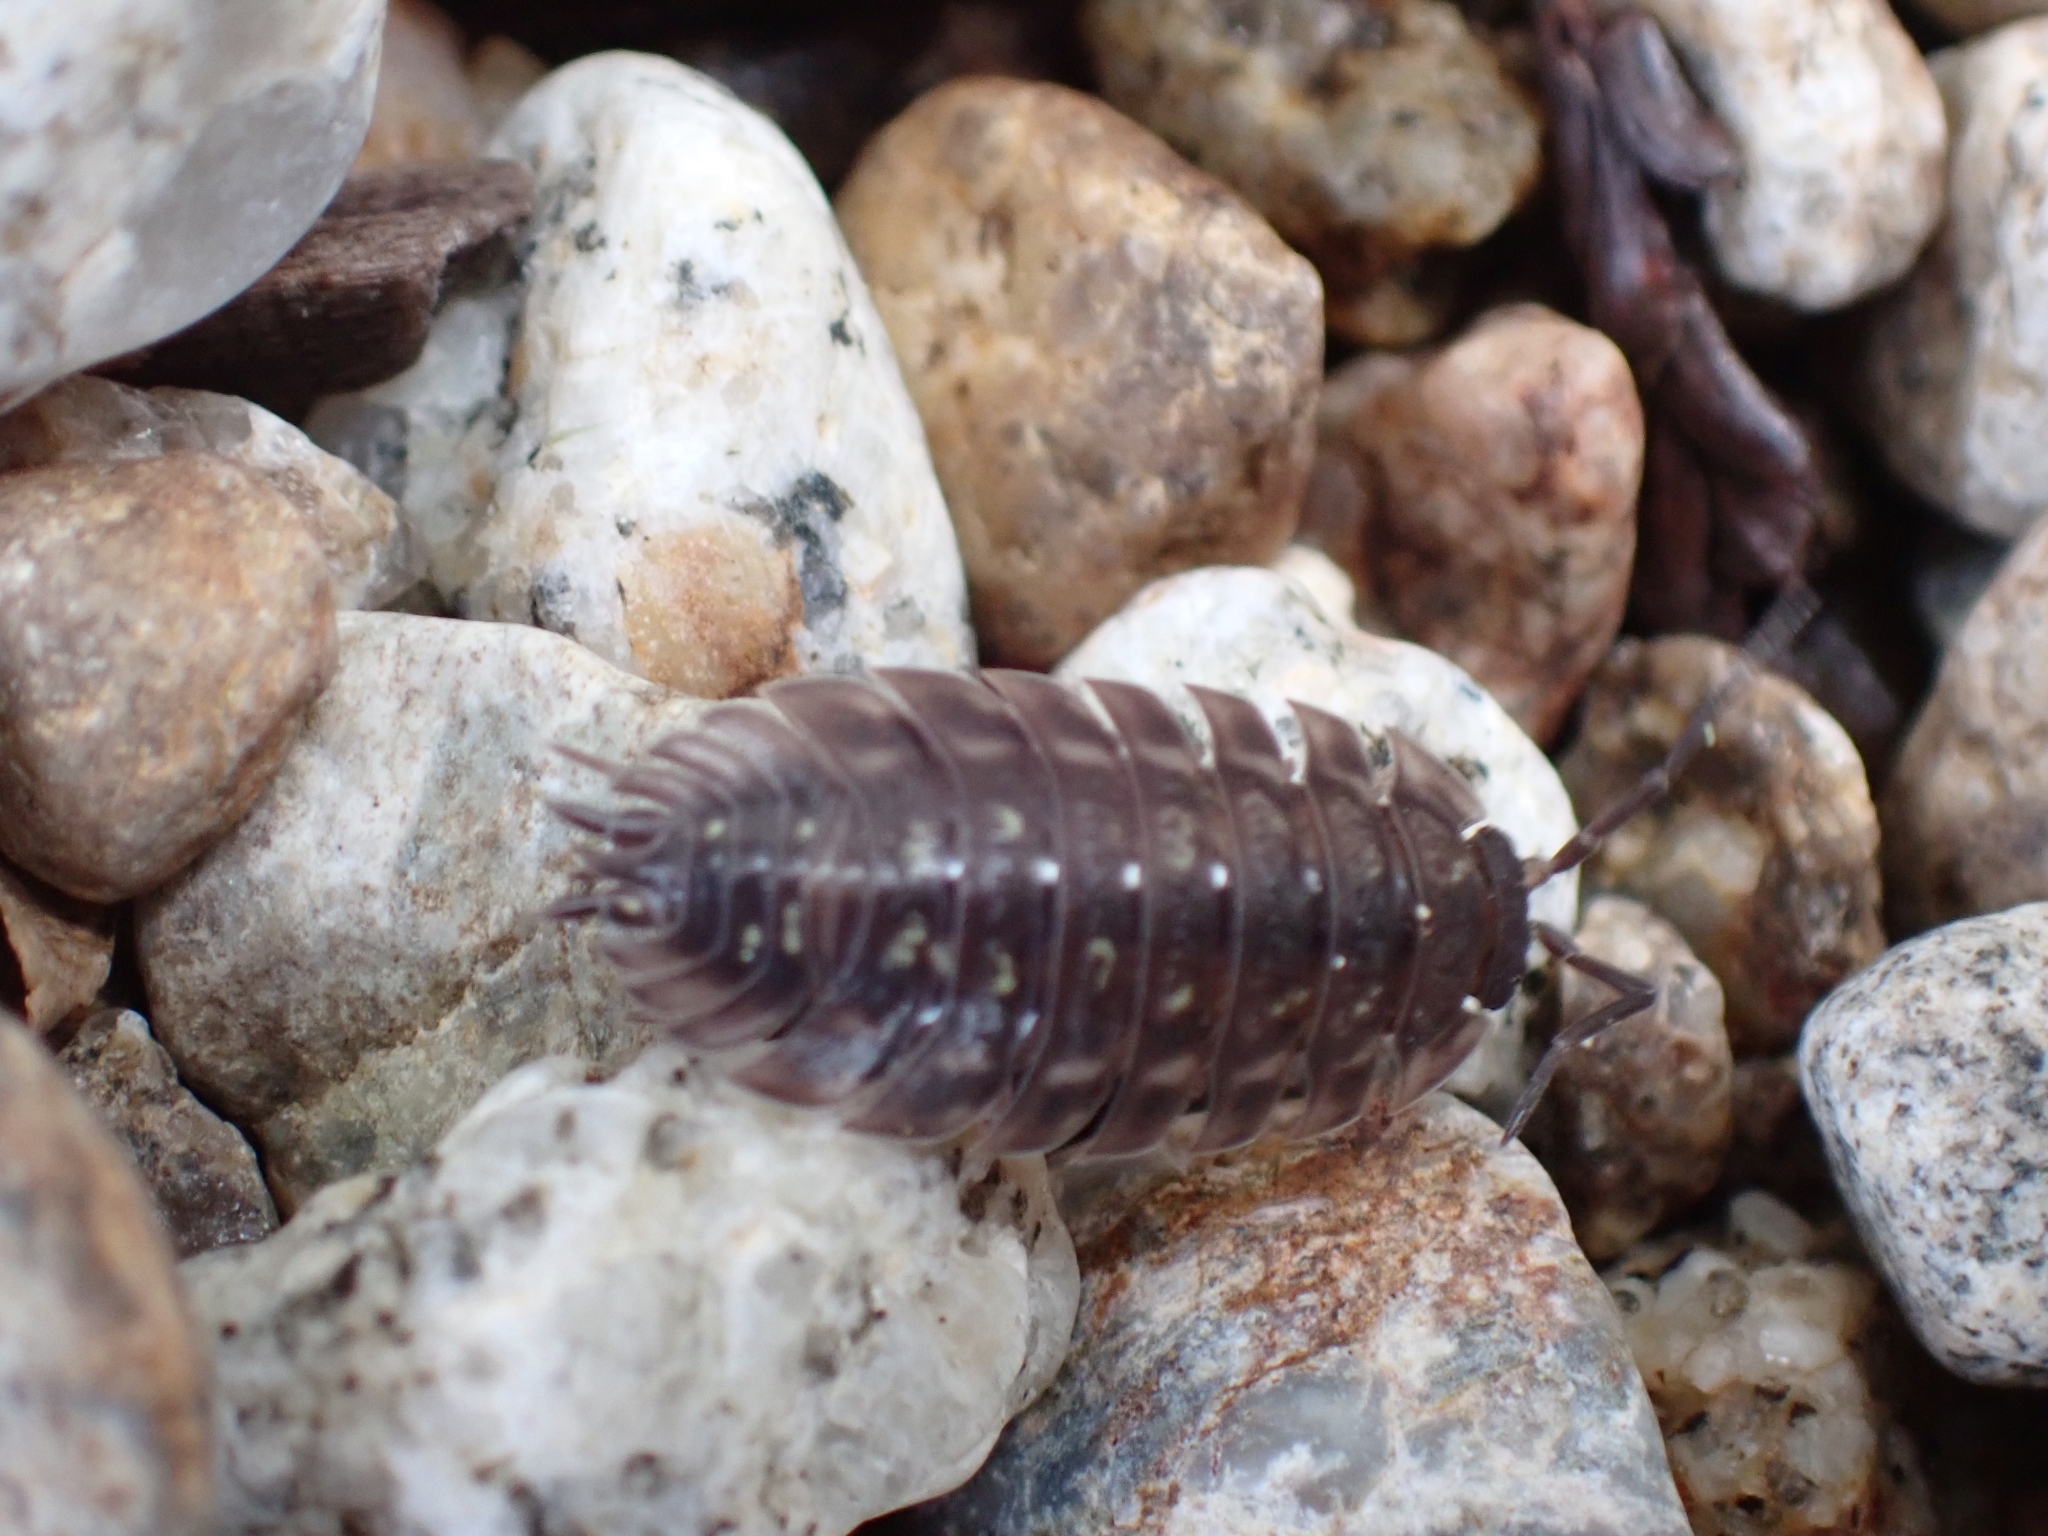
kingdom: Animalia
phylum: Arthropoda
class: Malacostraca
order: Isopoda
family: Oniscidae
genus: Oniscus
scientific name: Oniscus asellus
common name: Common shiny woodlouse
